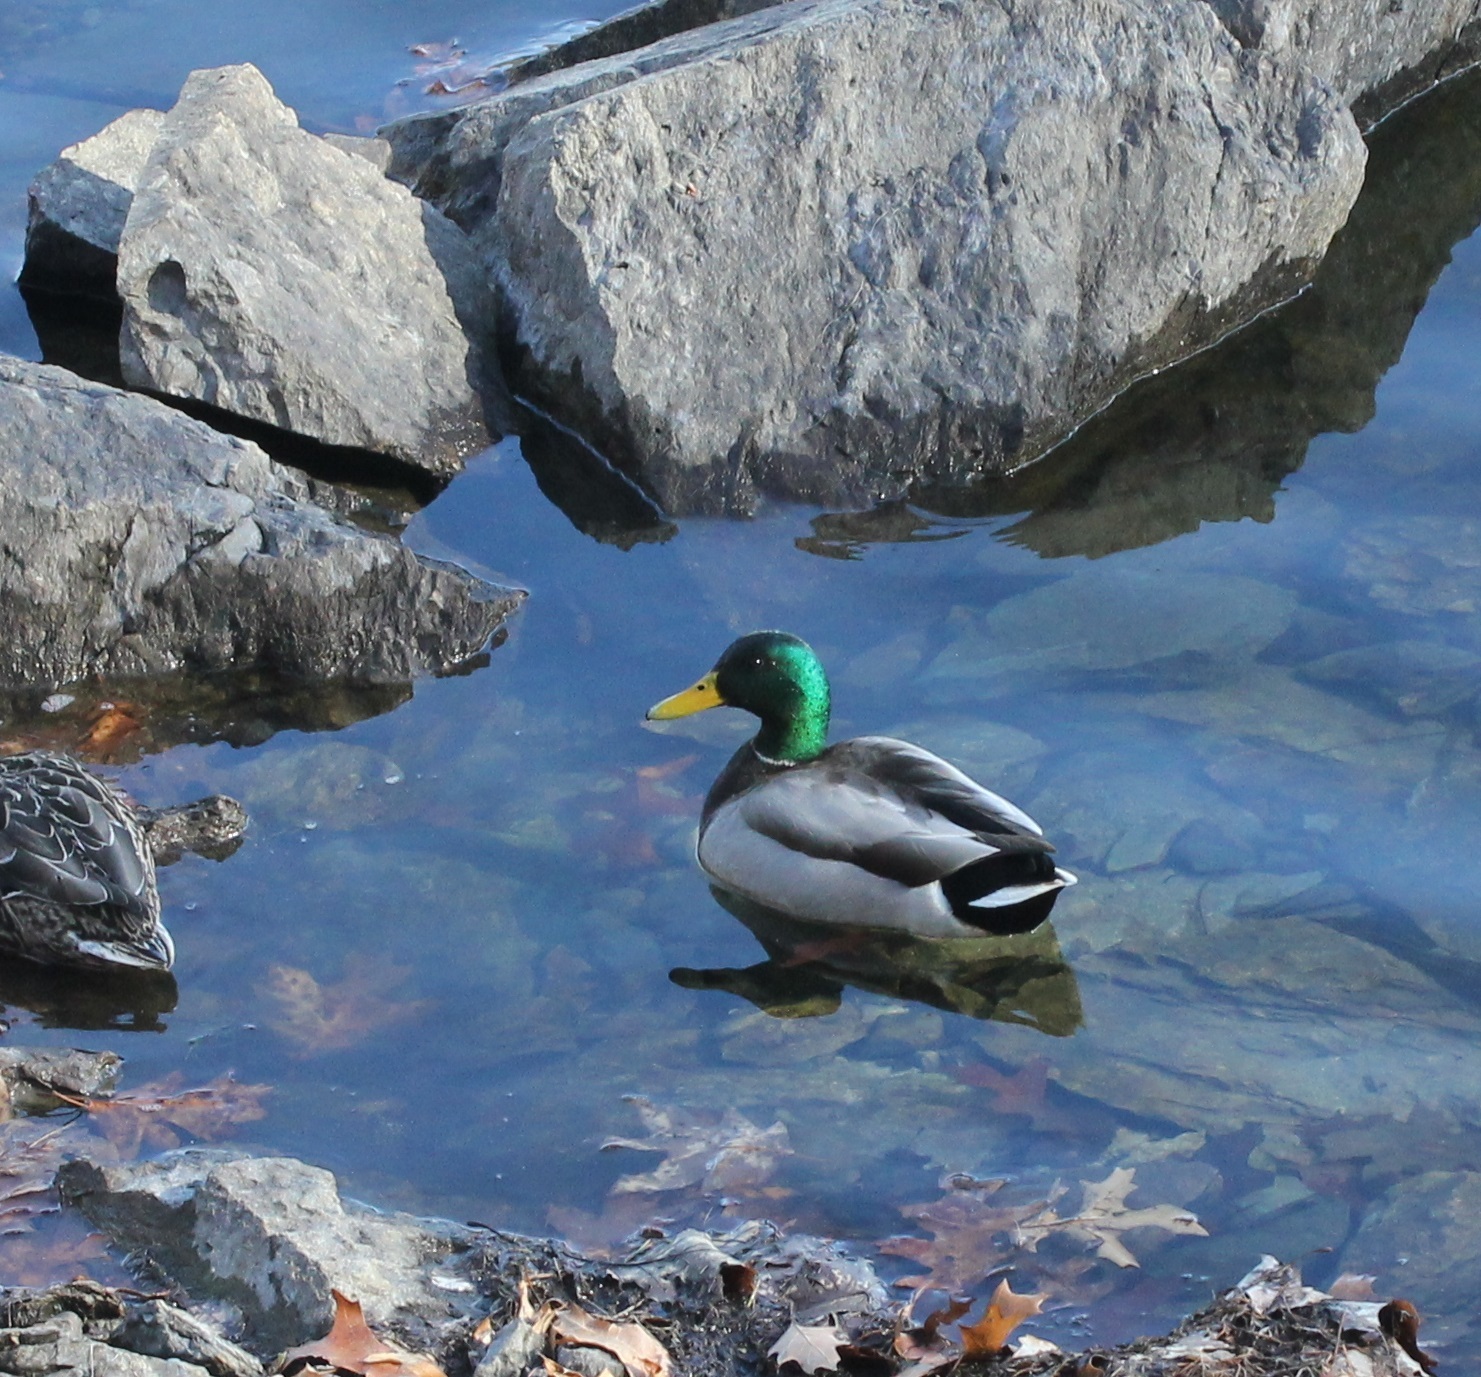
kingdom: Animalia
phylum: Chordata
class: Aves
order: Anseriformes
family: Anatidae
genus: Anas
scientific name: Anas platyrhynchos
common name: Mallard
